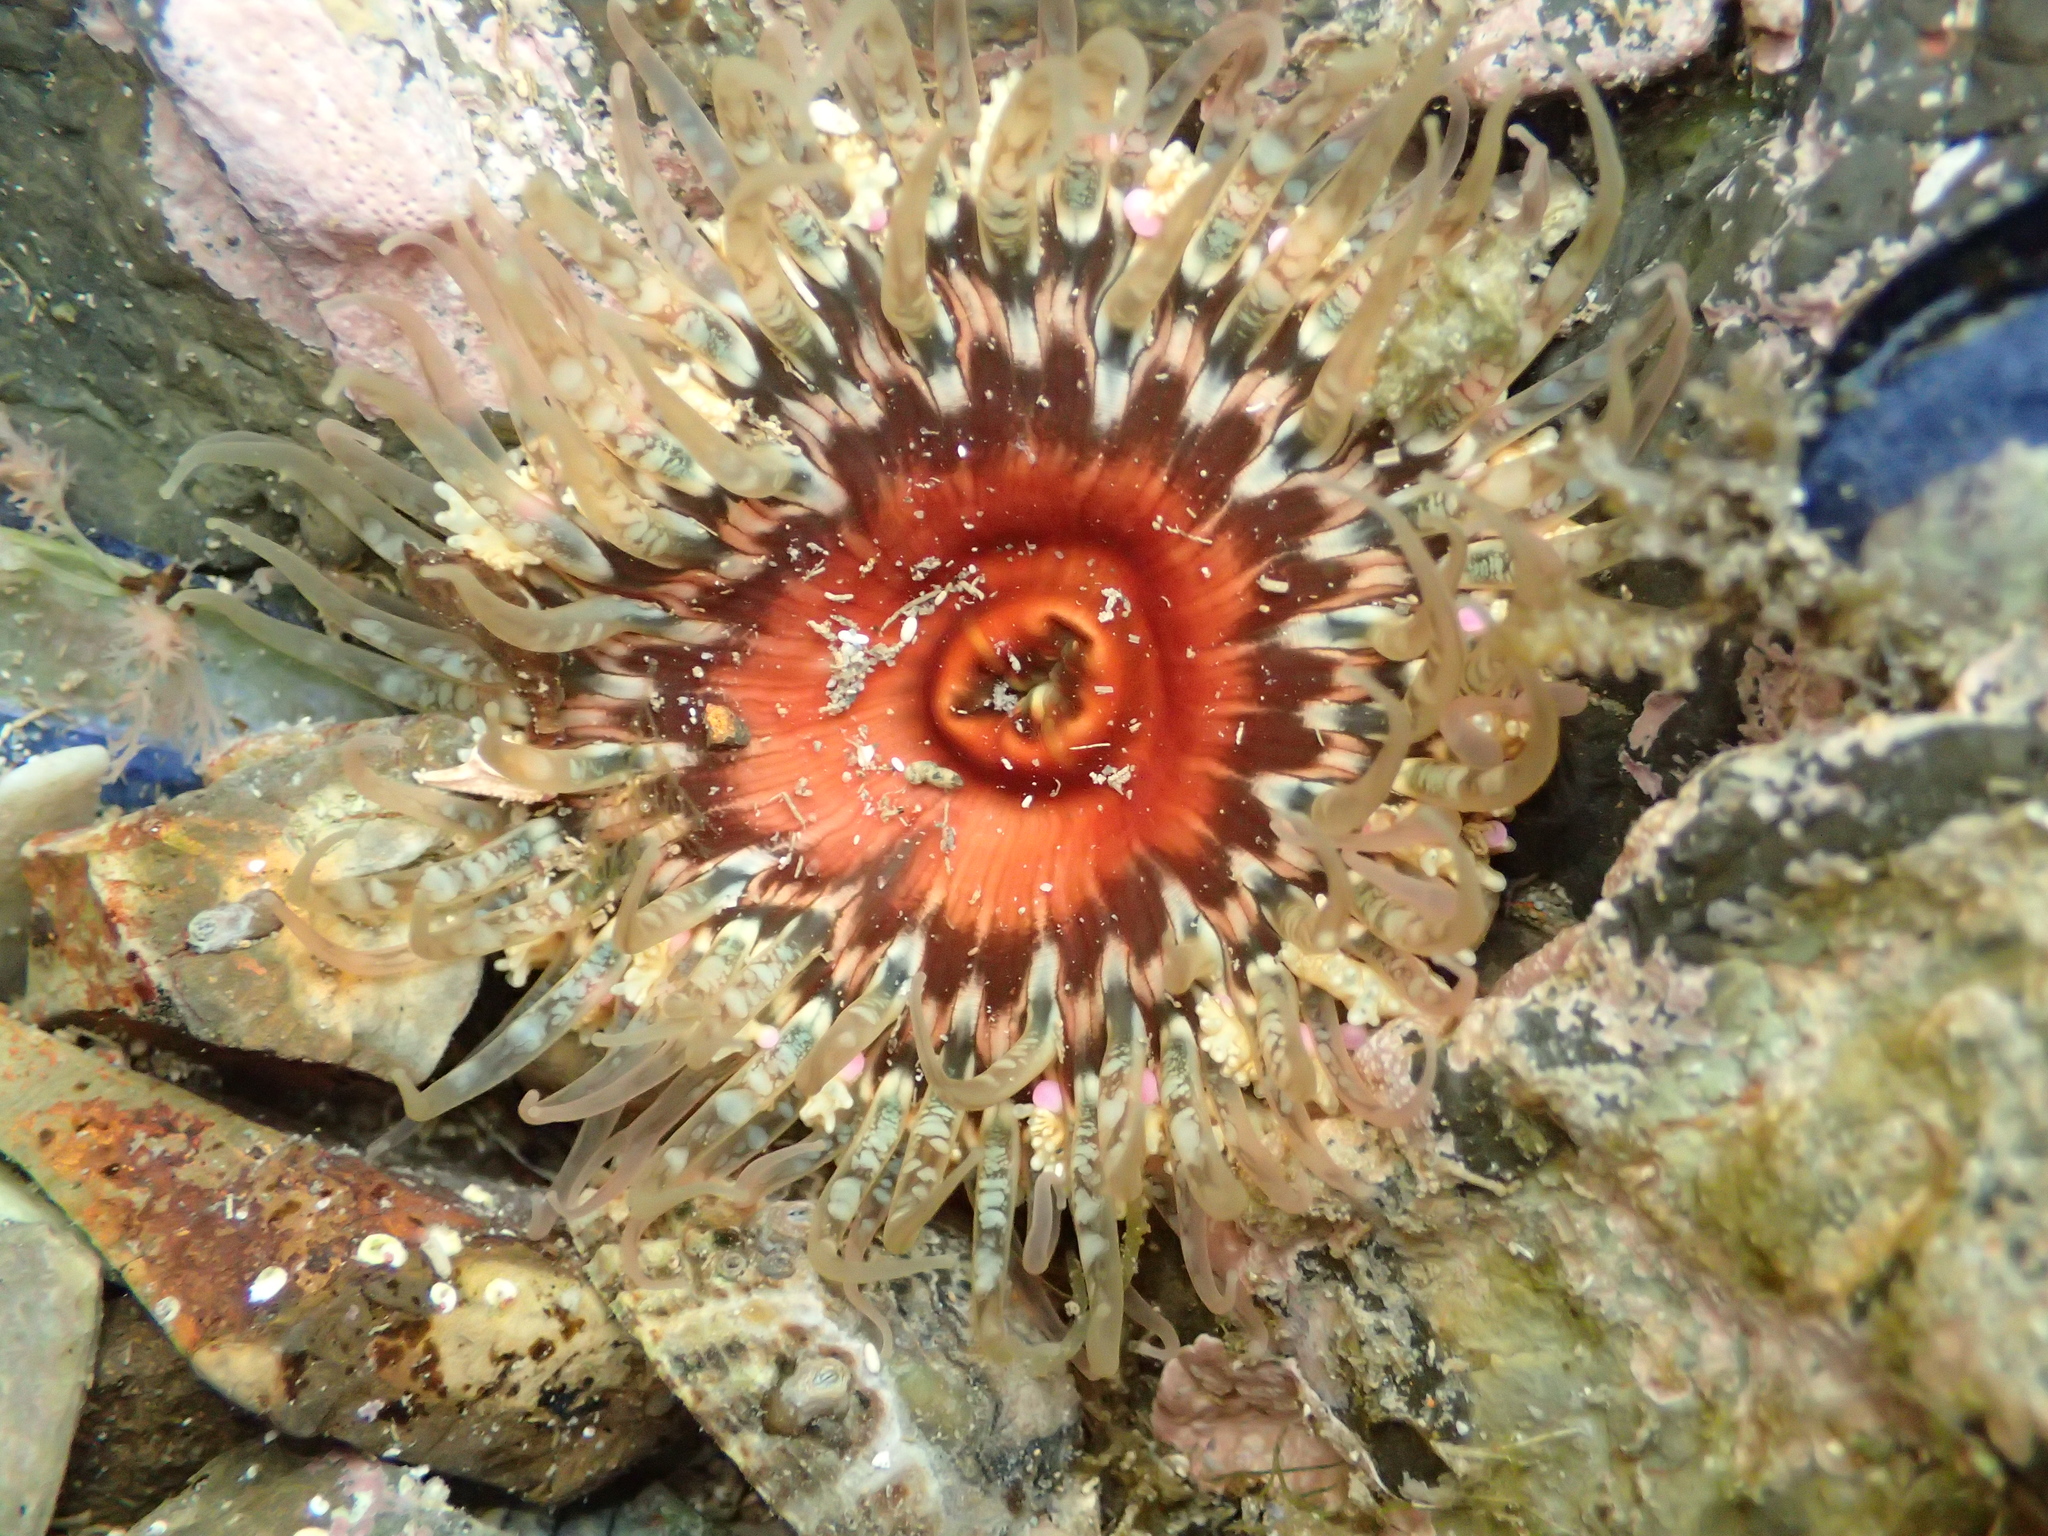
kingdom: Animalia
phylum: Cnidaria
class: Anthozoa
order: Actiniaria
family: Actiniidae
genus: Oulactis
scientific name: Oulactis muscosa
